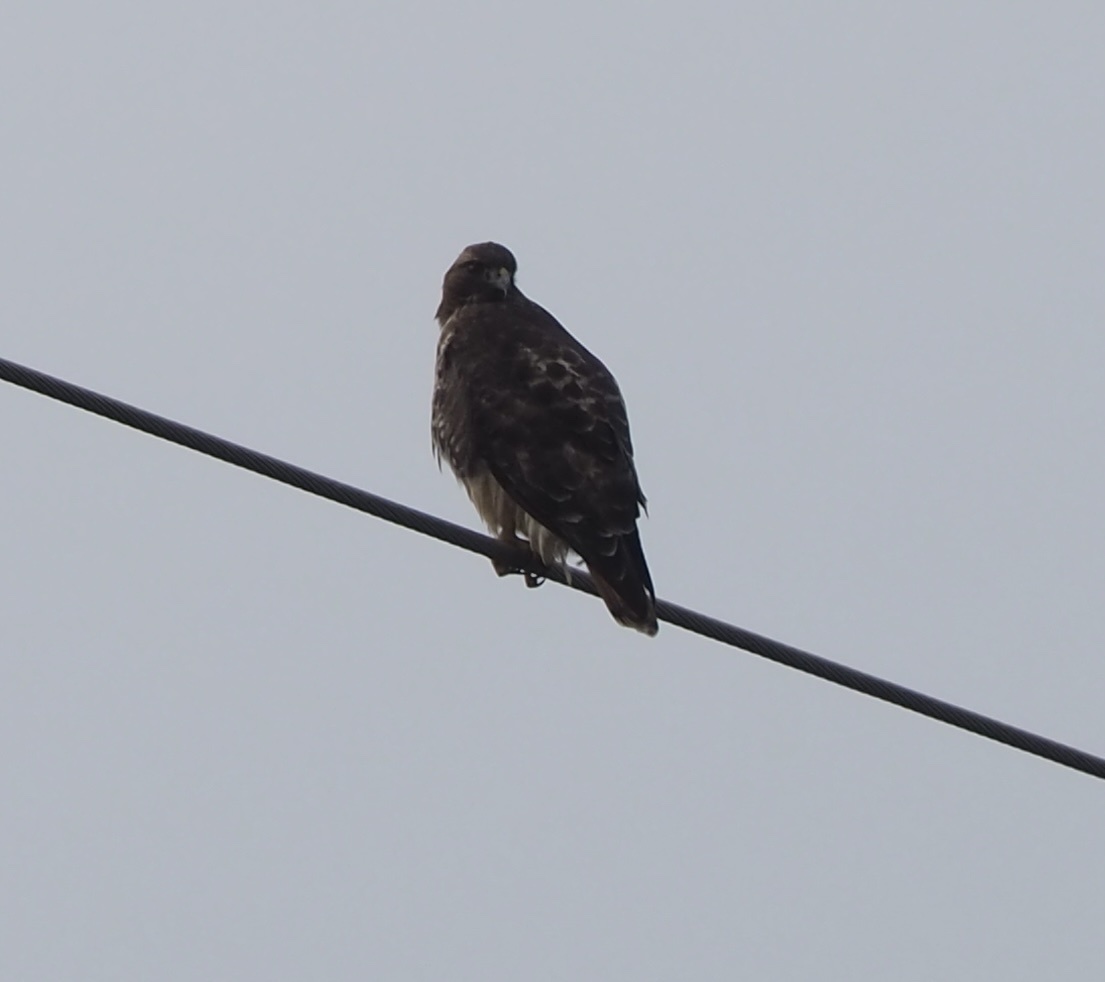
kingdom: Animalia
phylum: Chordata
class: Aves
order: Accipitriformes
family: Accipitridae
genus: Buteo
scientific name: Buteo jamaicensis
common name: Red-tailed hawk
